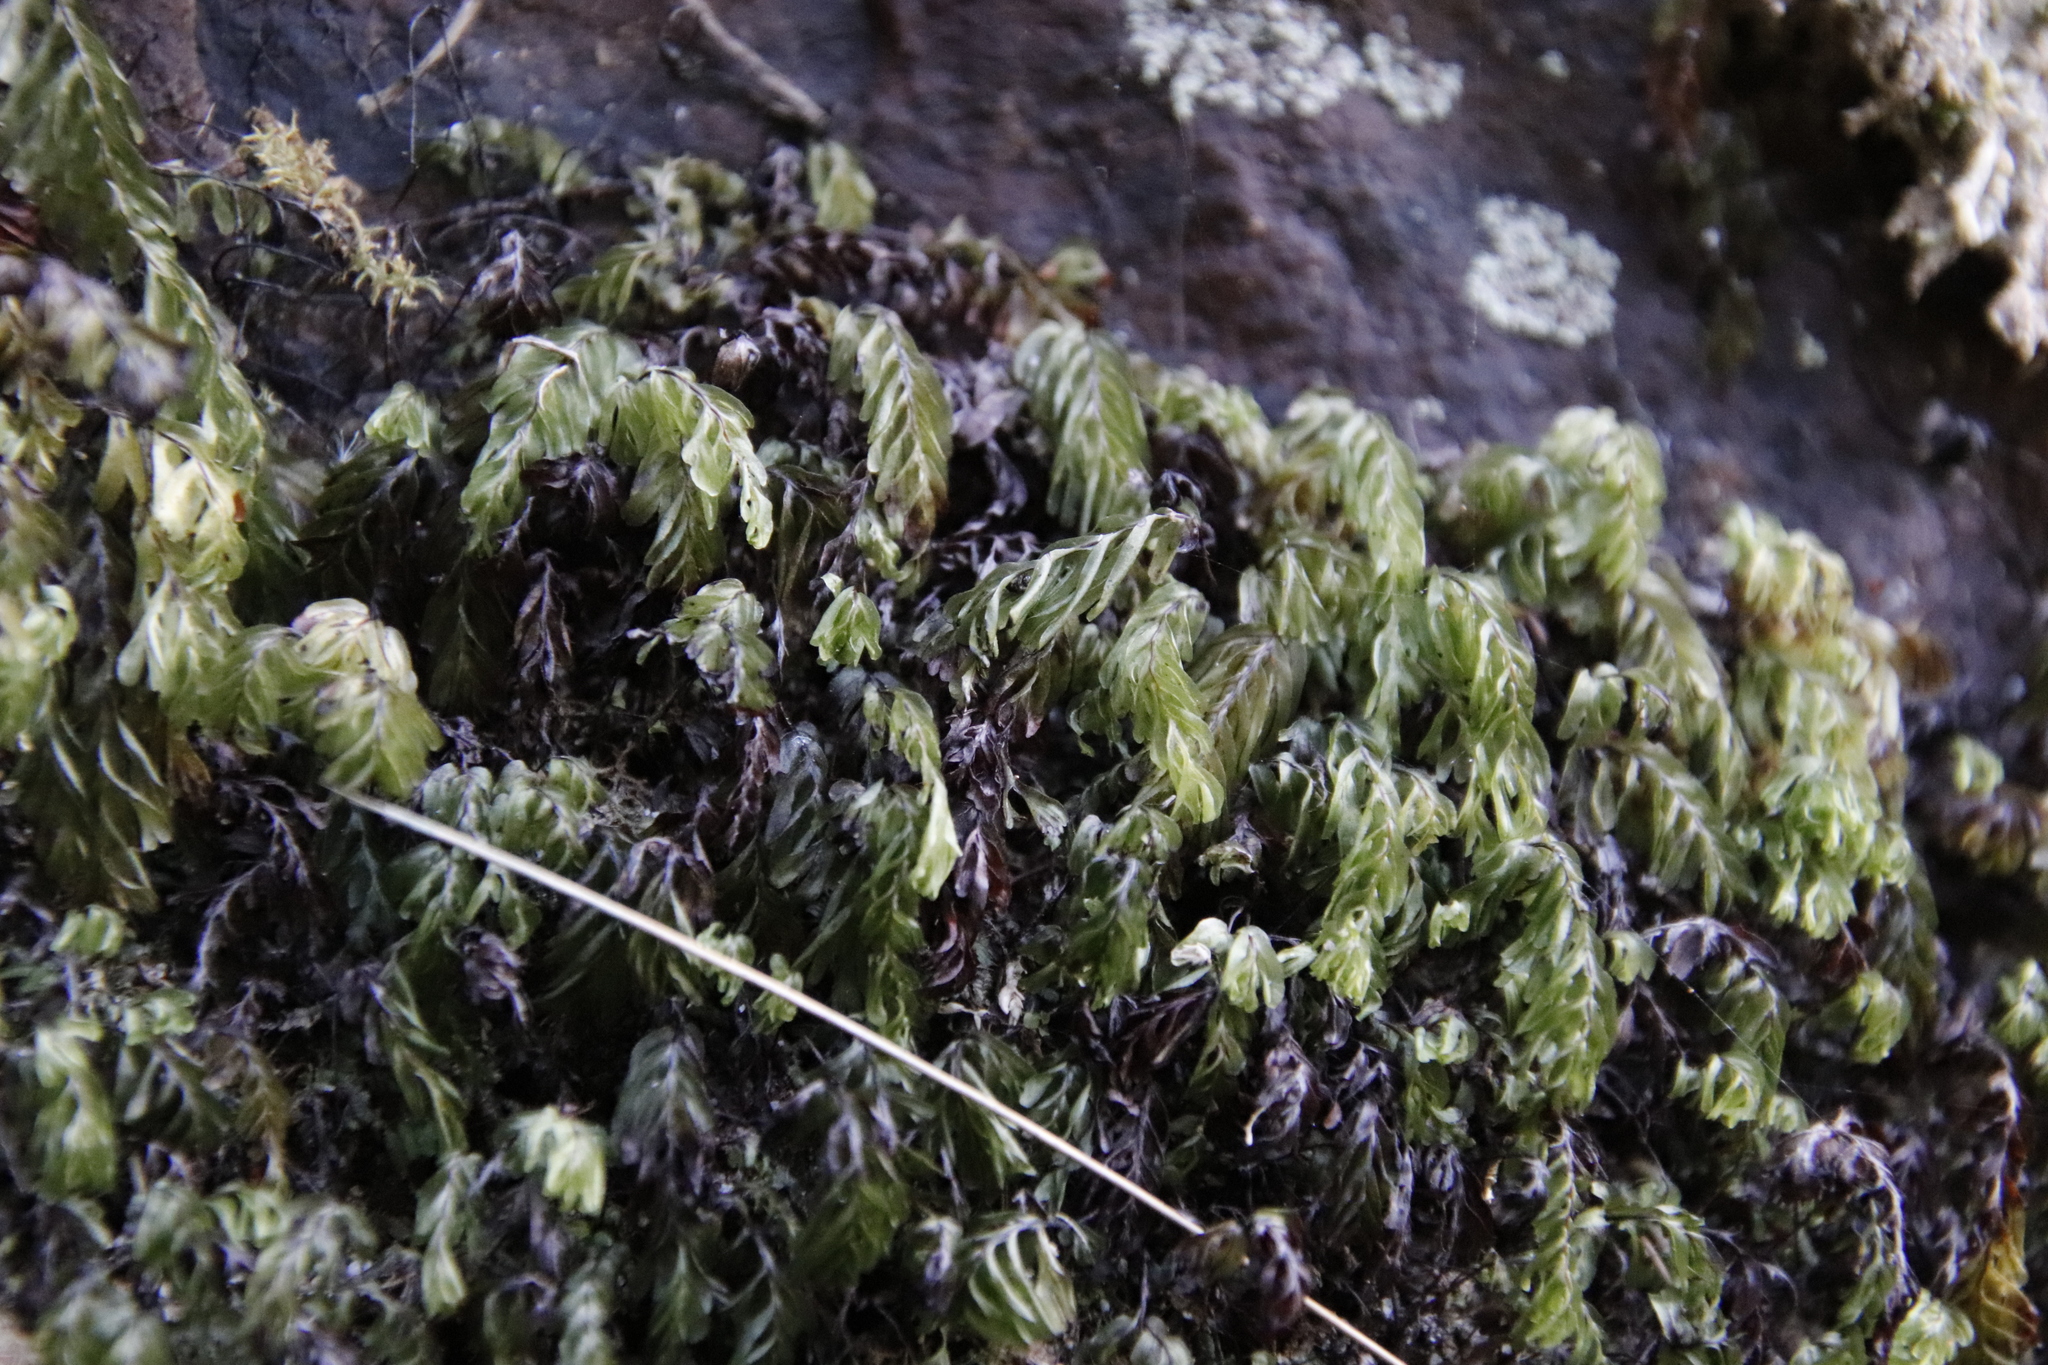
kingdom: Plantae
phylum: Tracheophyta
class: Polypodiopsida
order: Hymenophyllales
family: Hymenophyllaceae
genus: Hymenophyllum
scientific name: Hymenophyllum capense
